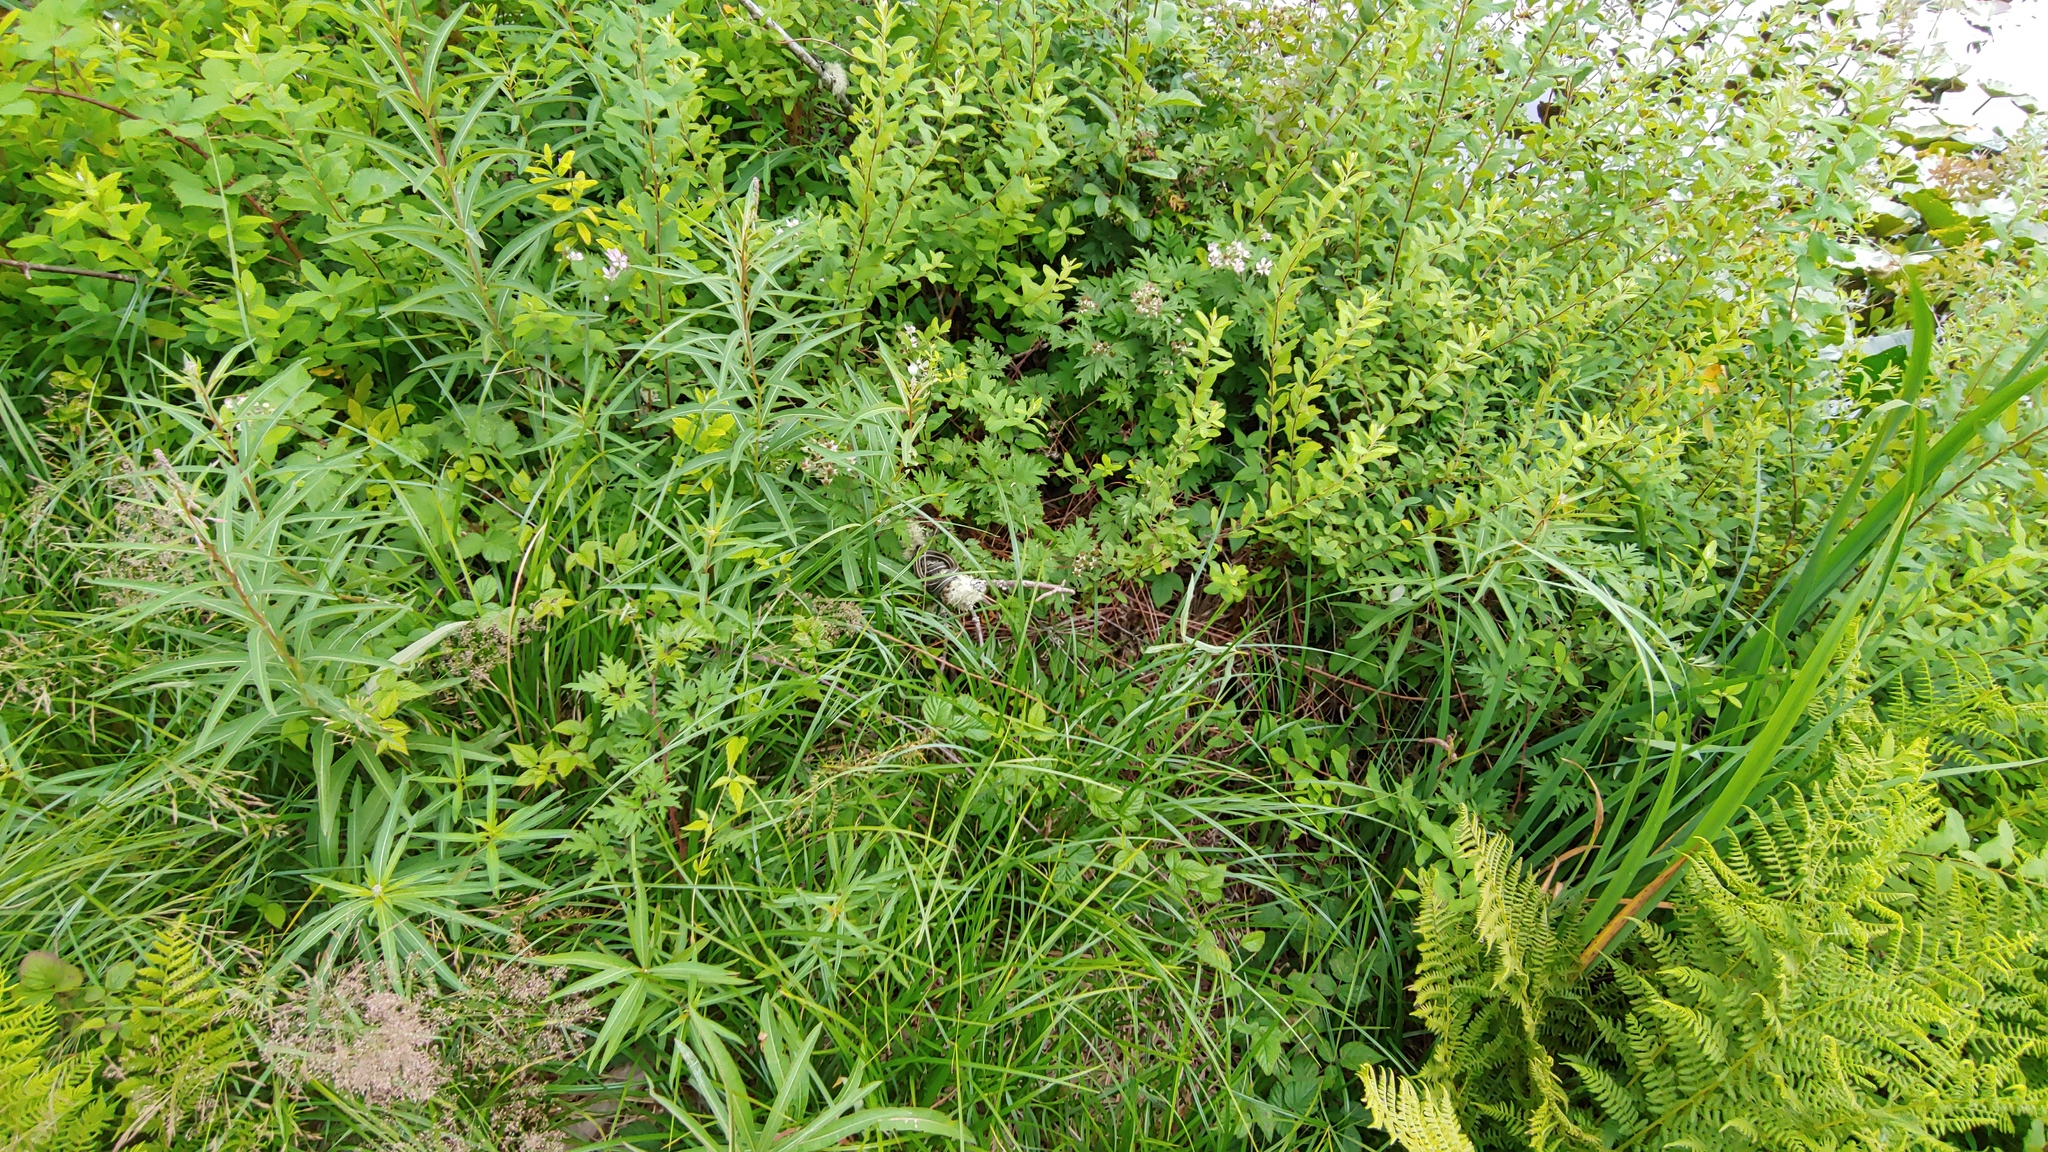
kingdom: Plantae
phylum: Tracheophyta
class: Magnoliopsida
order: Myrtales
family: Onagraceae
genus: Chamaenerion
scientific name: Chamaenerion angustifolium
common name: Fireweed
